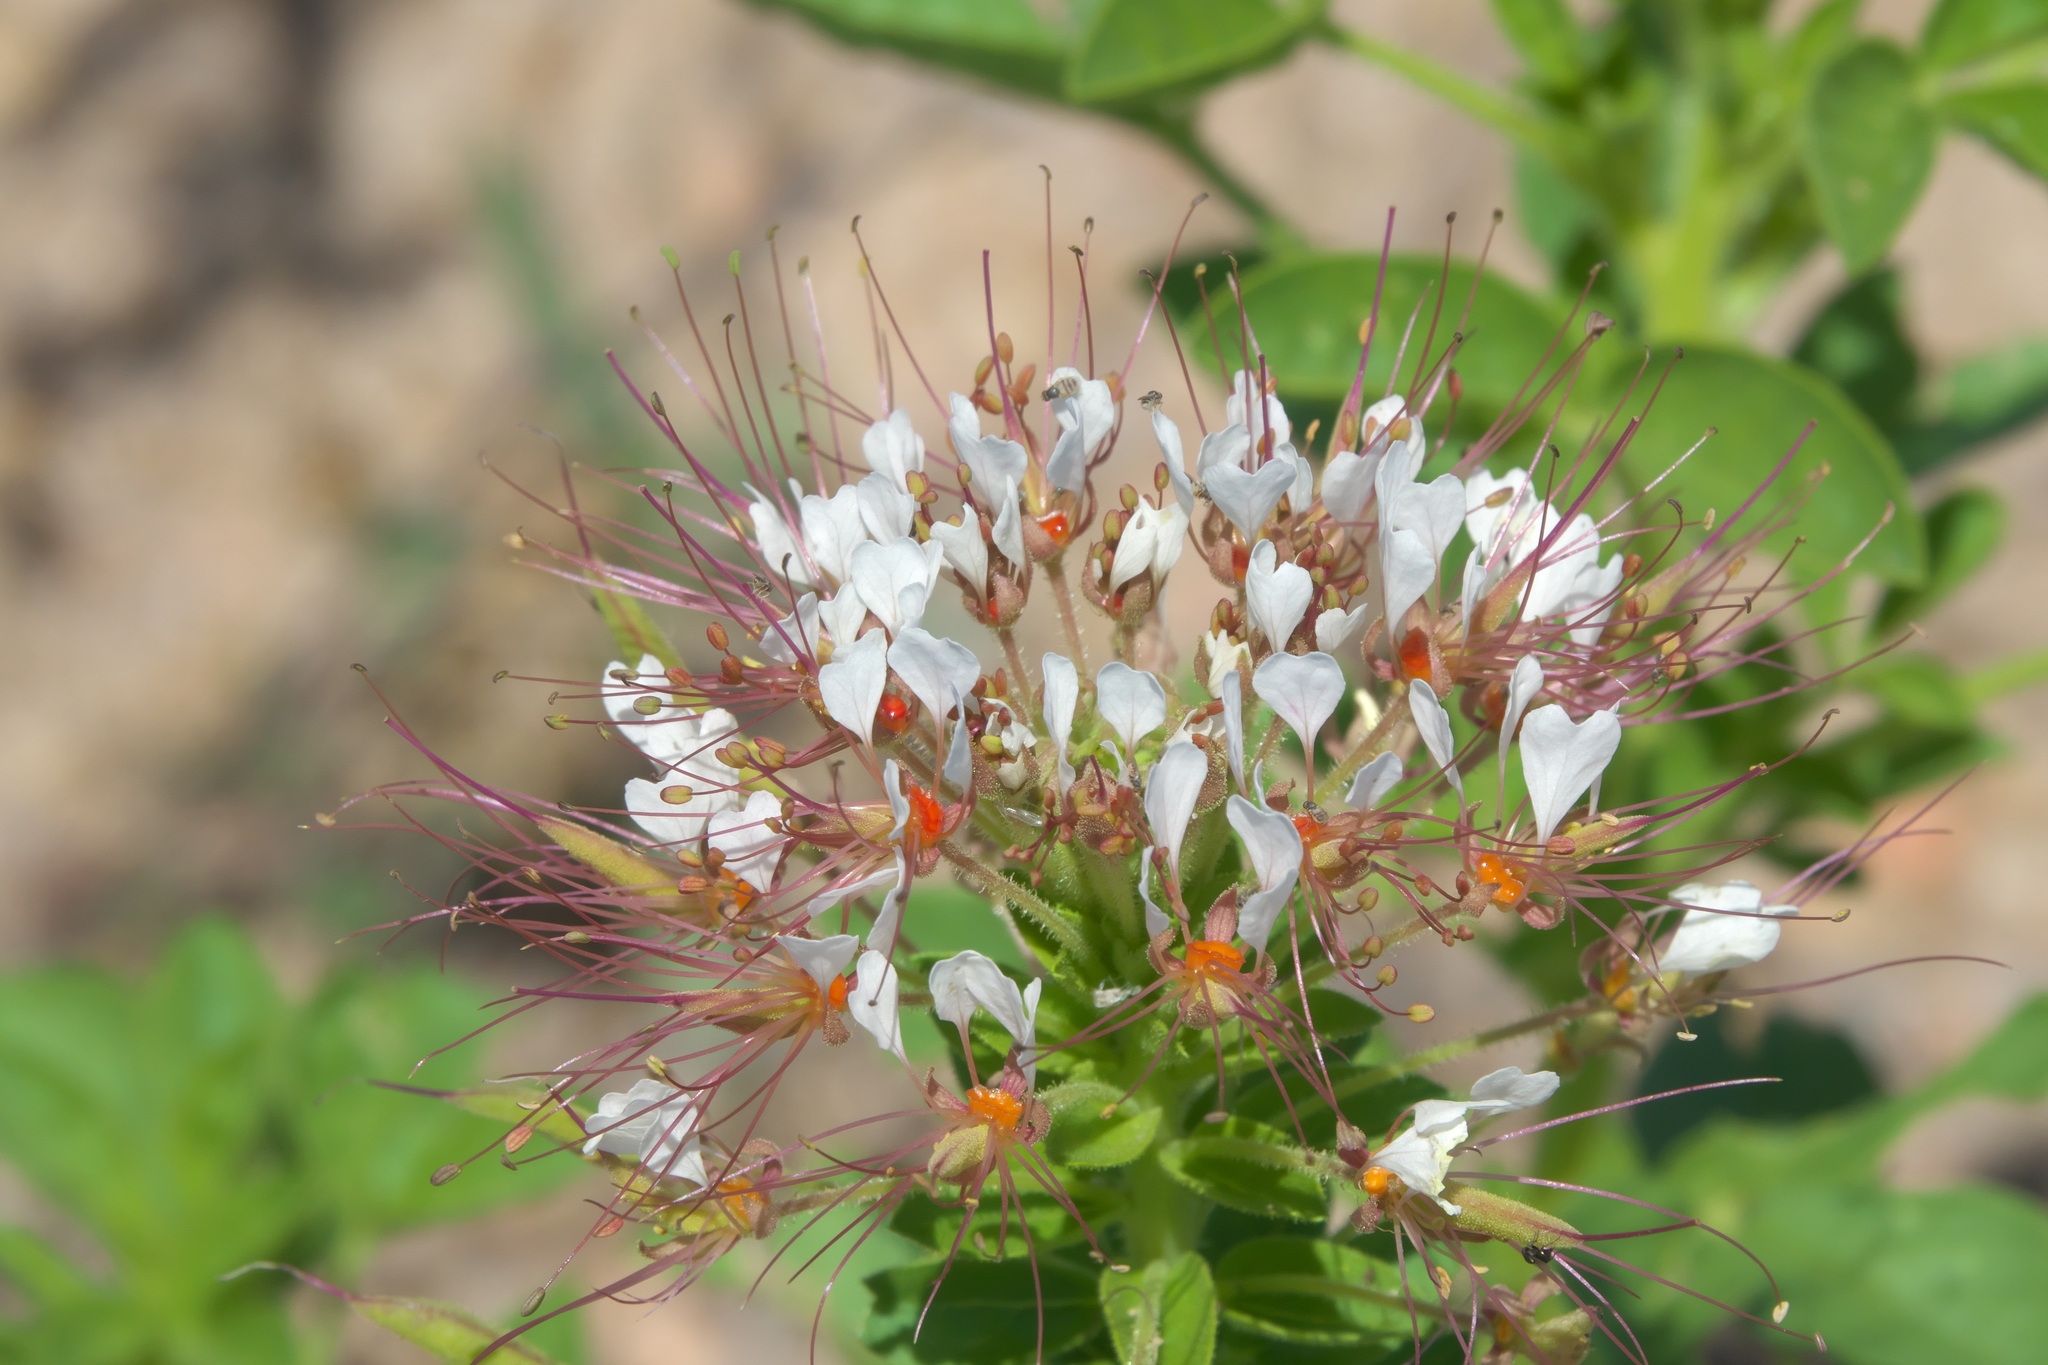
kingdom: Plantae
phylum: Tracheophyta
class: Magnoliopsida
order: Brassicales
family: Cleomaceae
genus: Polanisia
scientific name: Polanisia dodecandra
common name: Clammyweed
